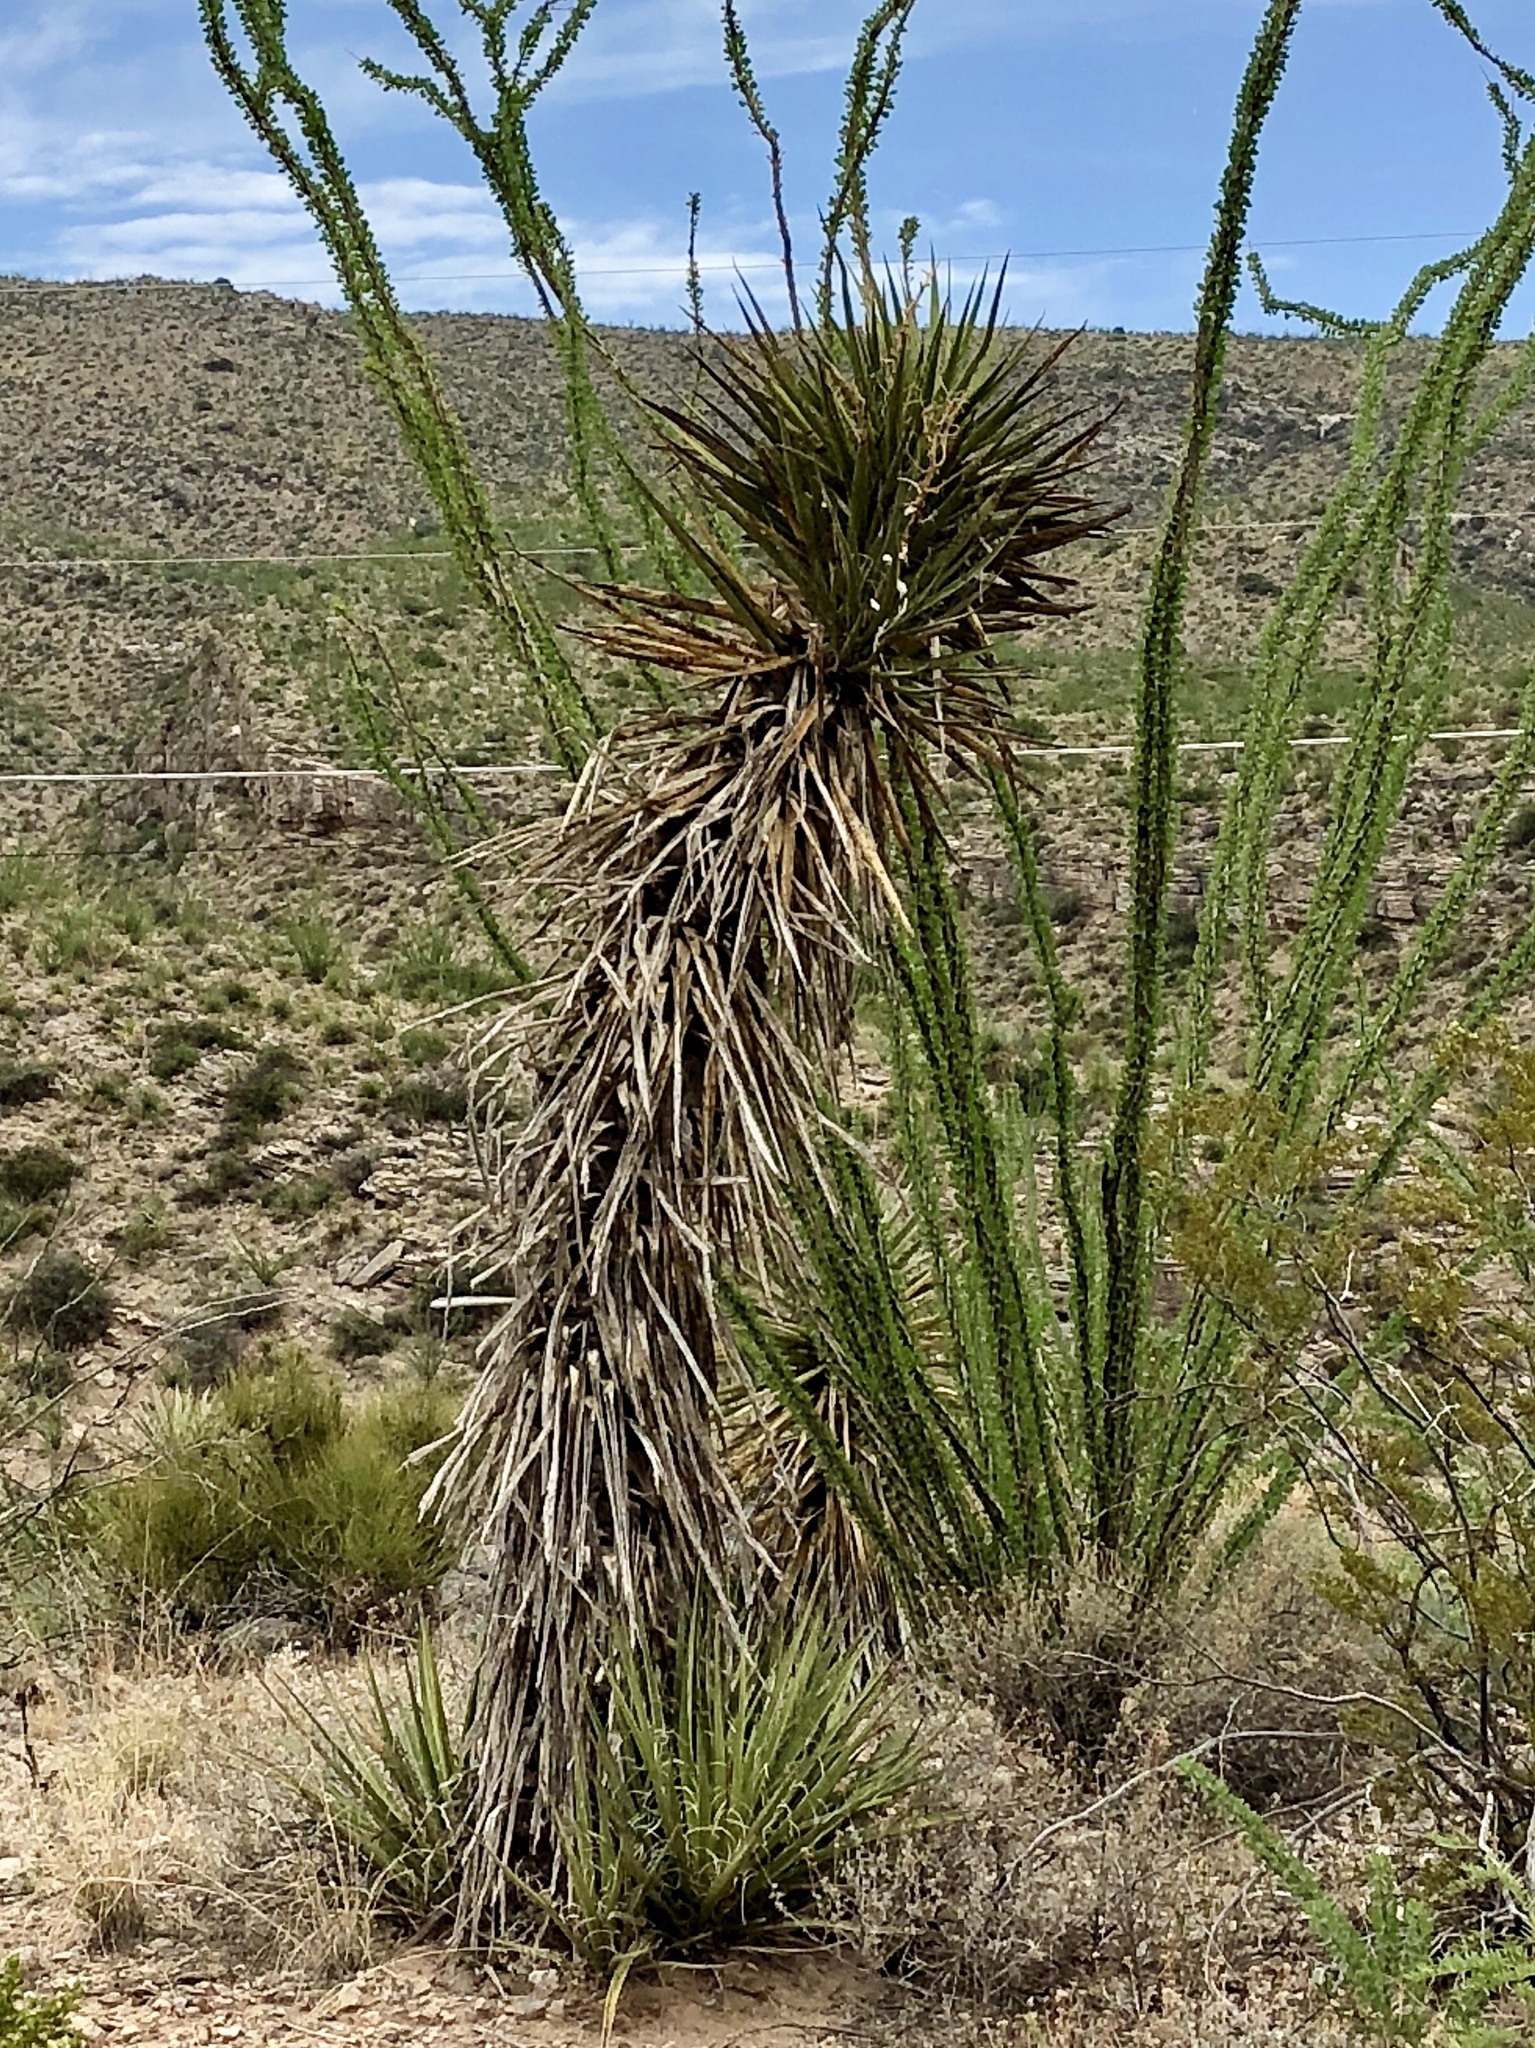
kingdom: Plantae
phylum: Tracheophyta
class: Liliopsida
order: Asparagales
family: Asparagaceae
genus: Yucca
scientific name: Yucca treculiana
